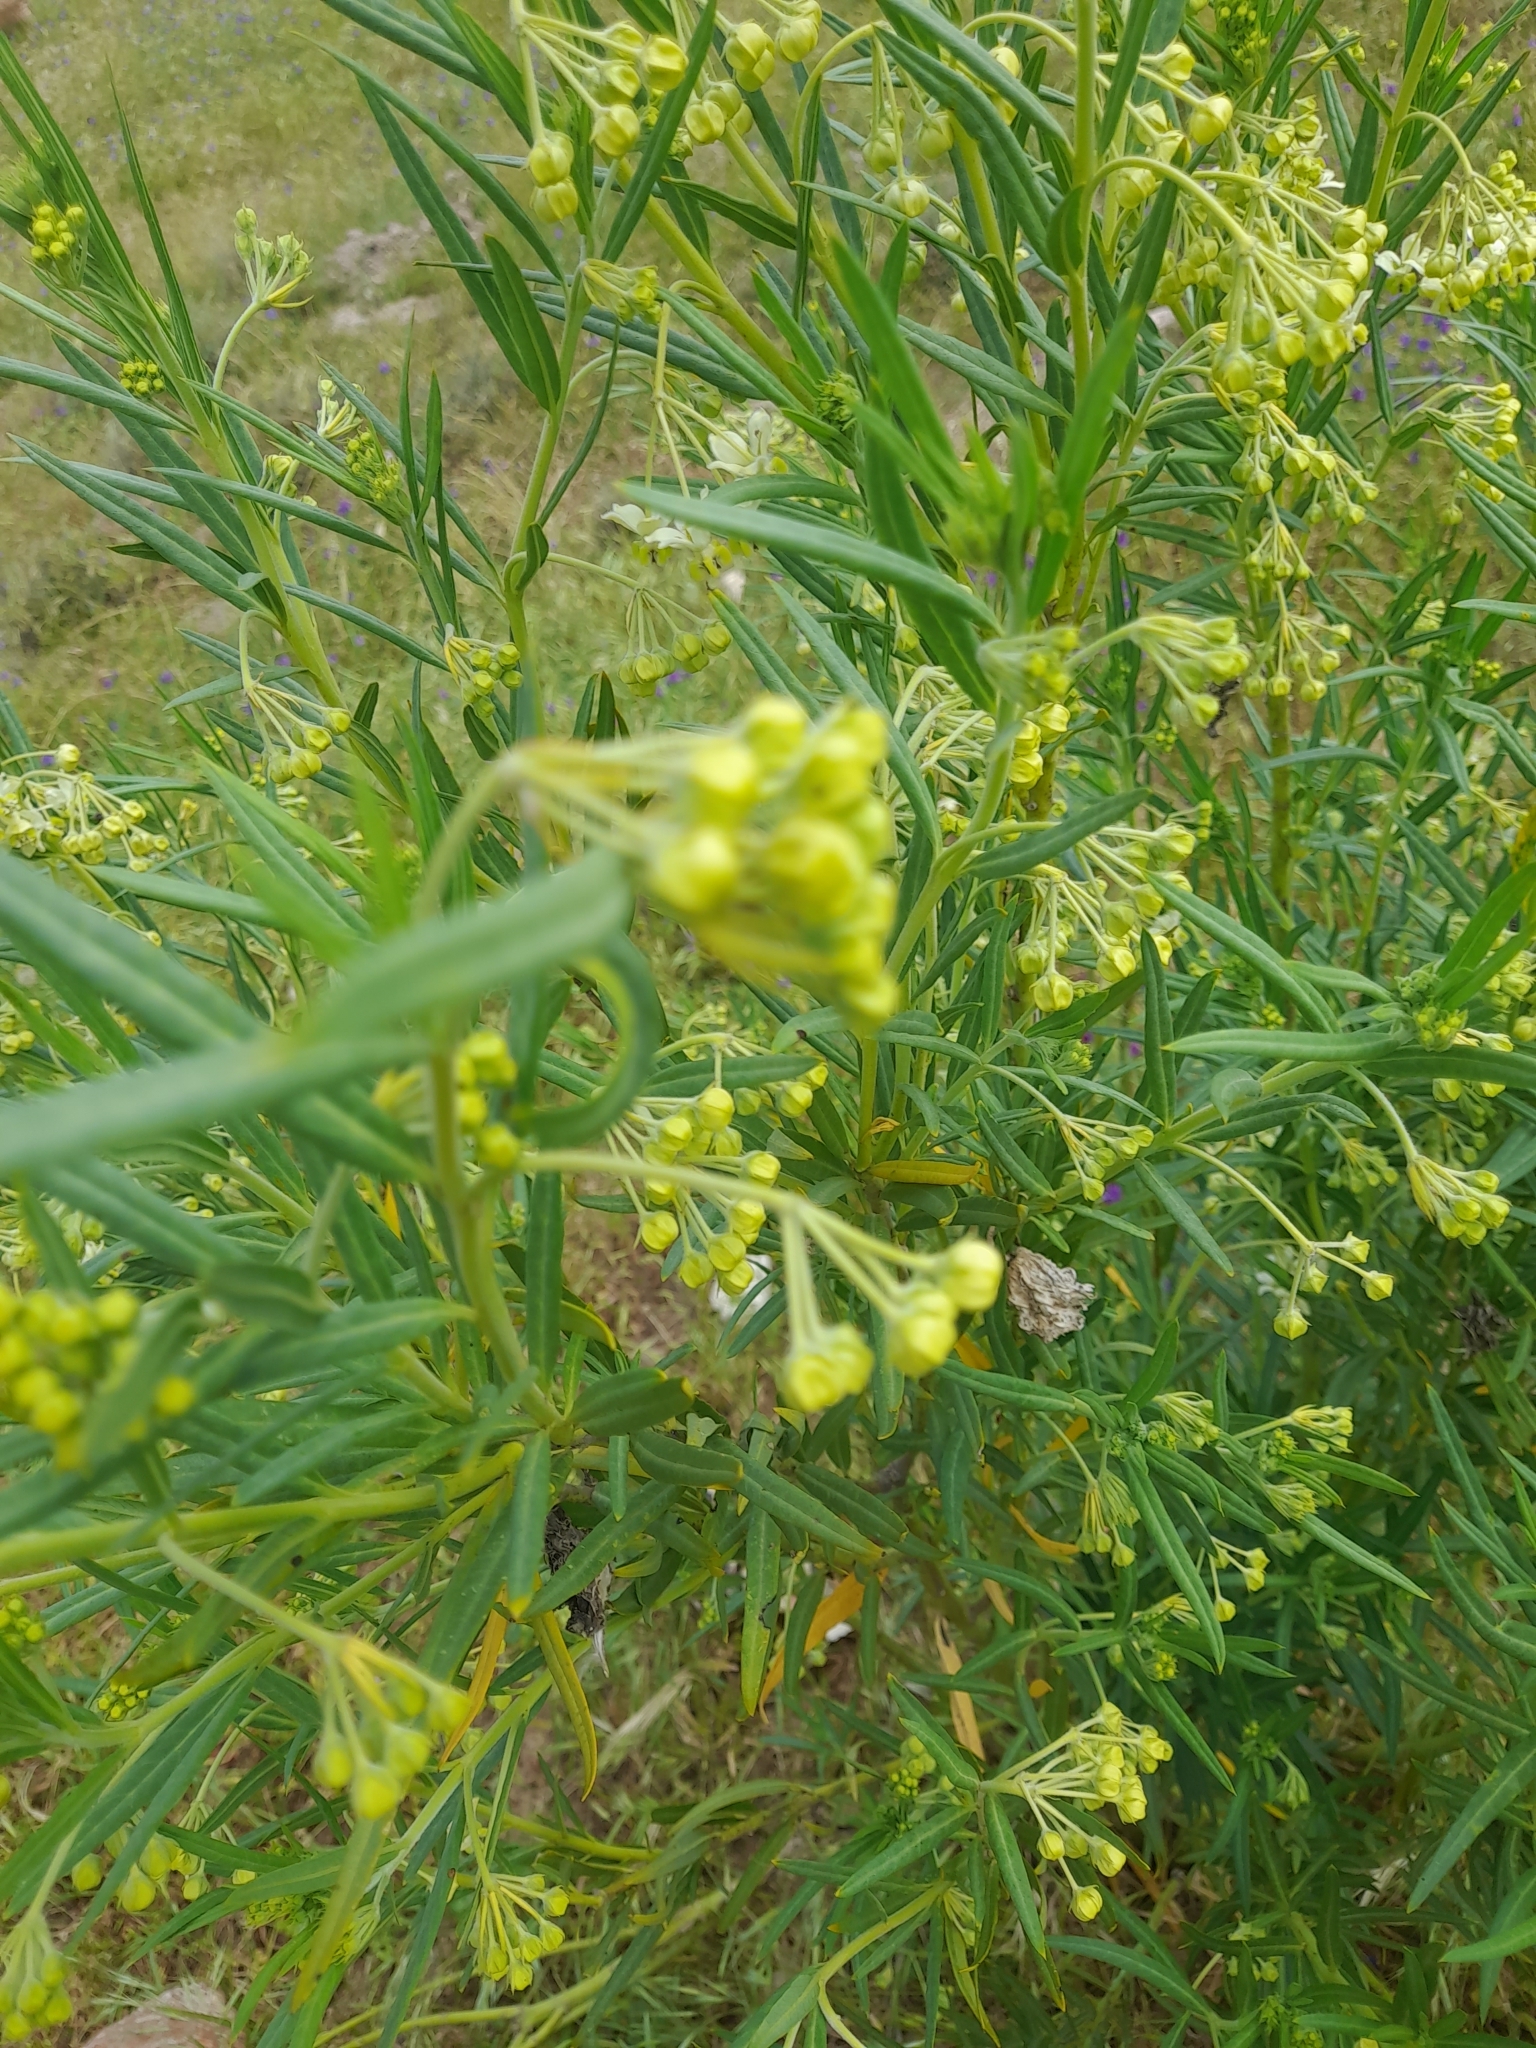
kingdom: Plantae
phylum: Tracheophyta
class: Magnoliopsida
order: Gentianales
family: Apocynaceae
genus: Gomphocarpus
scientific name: Gomphocarpus fruticosus
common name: Milkweed
